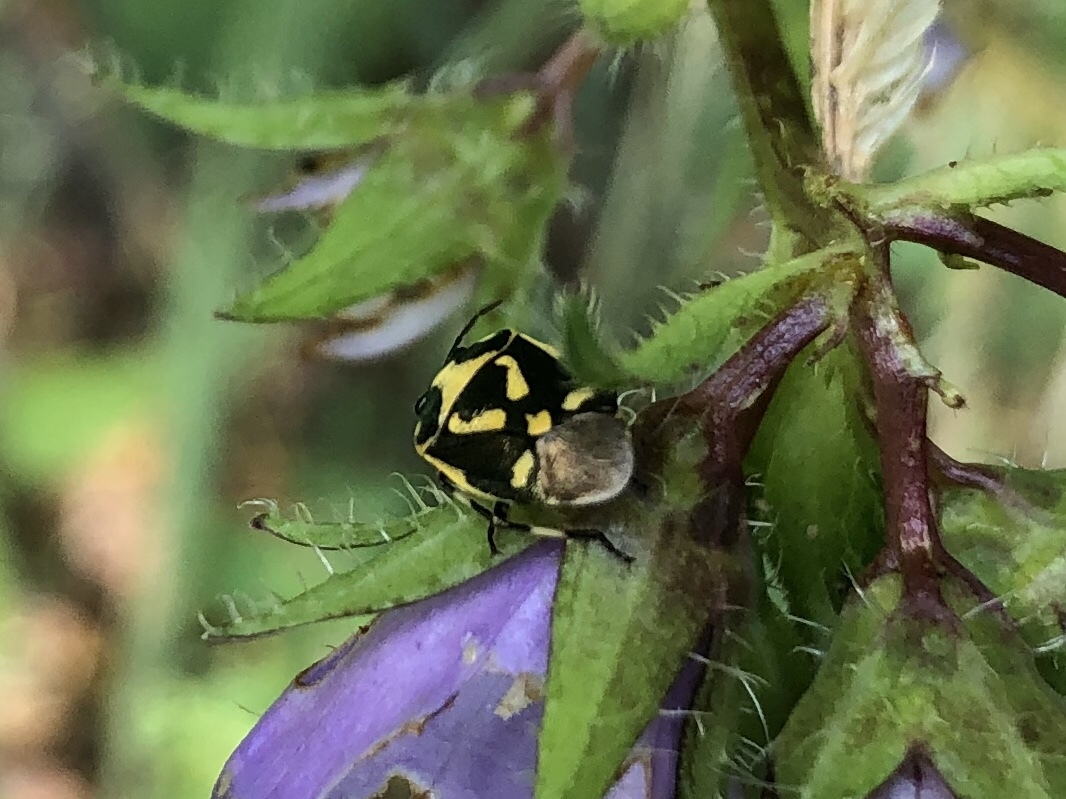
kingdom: Animalia
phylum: Arthropoda
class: Insecta
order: Hemiptera
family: Pentatomidae
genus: Eurydema
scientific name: Eurydema oleracea
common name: Cabbage bug
